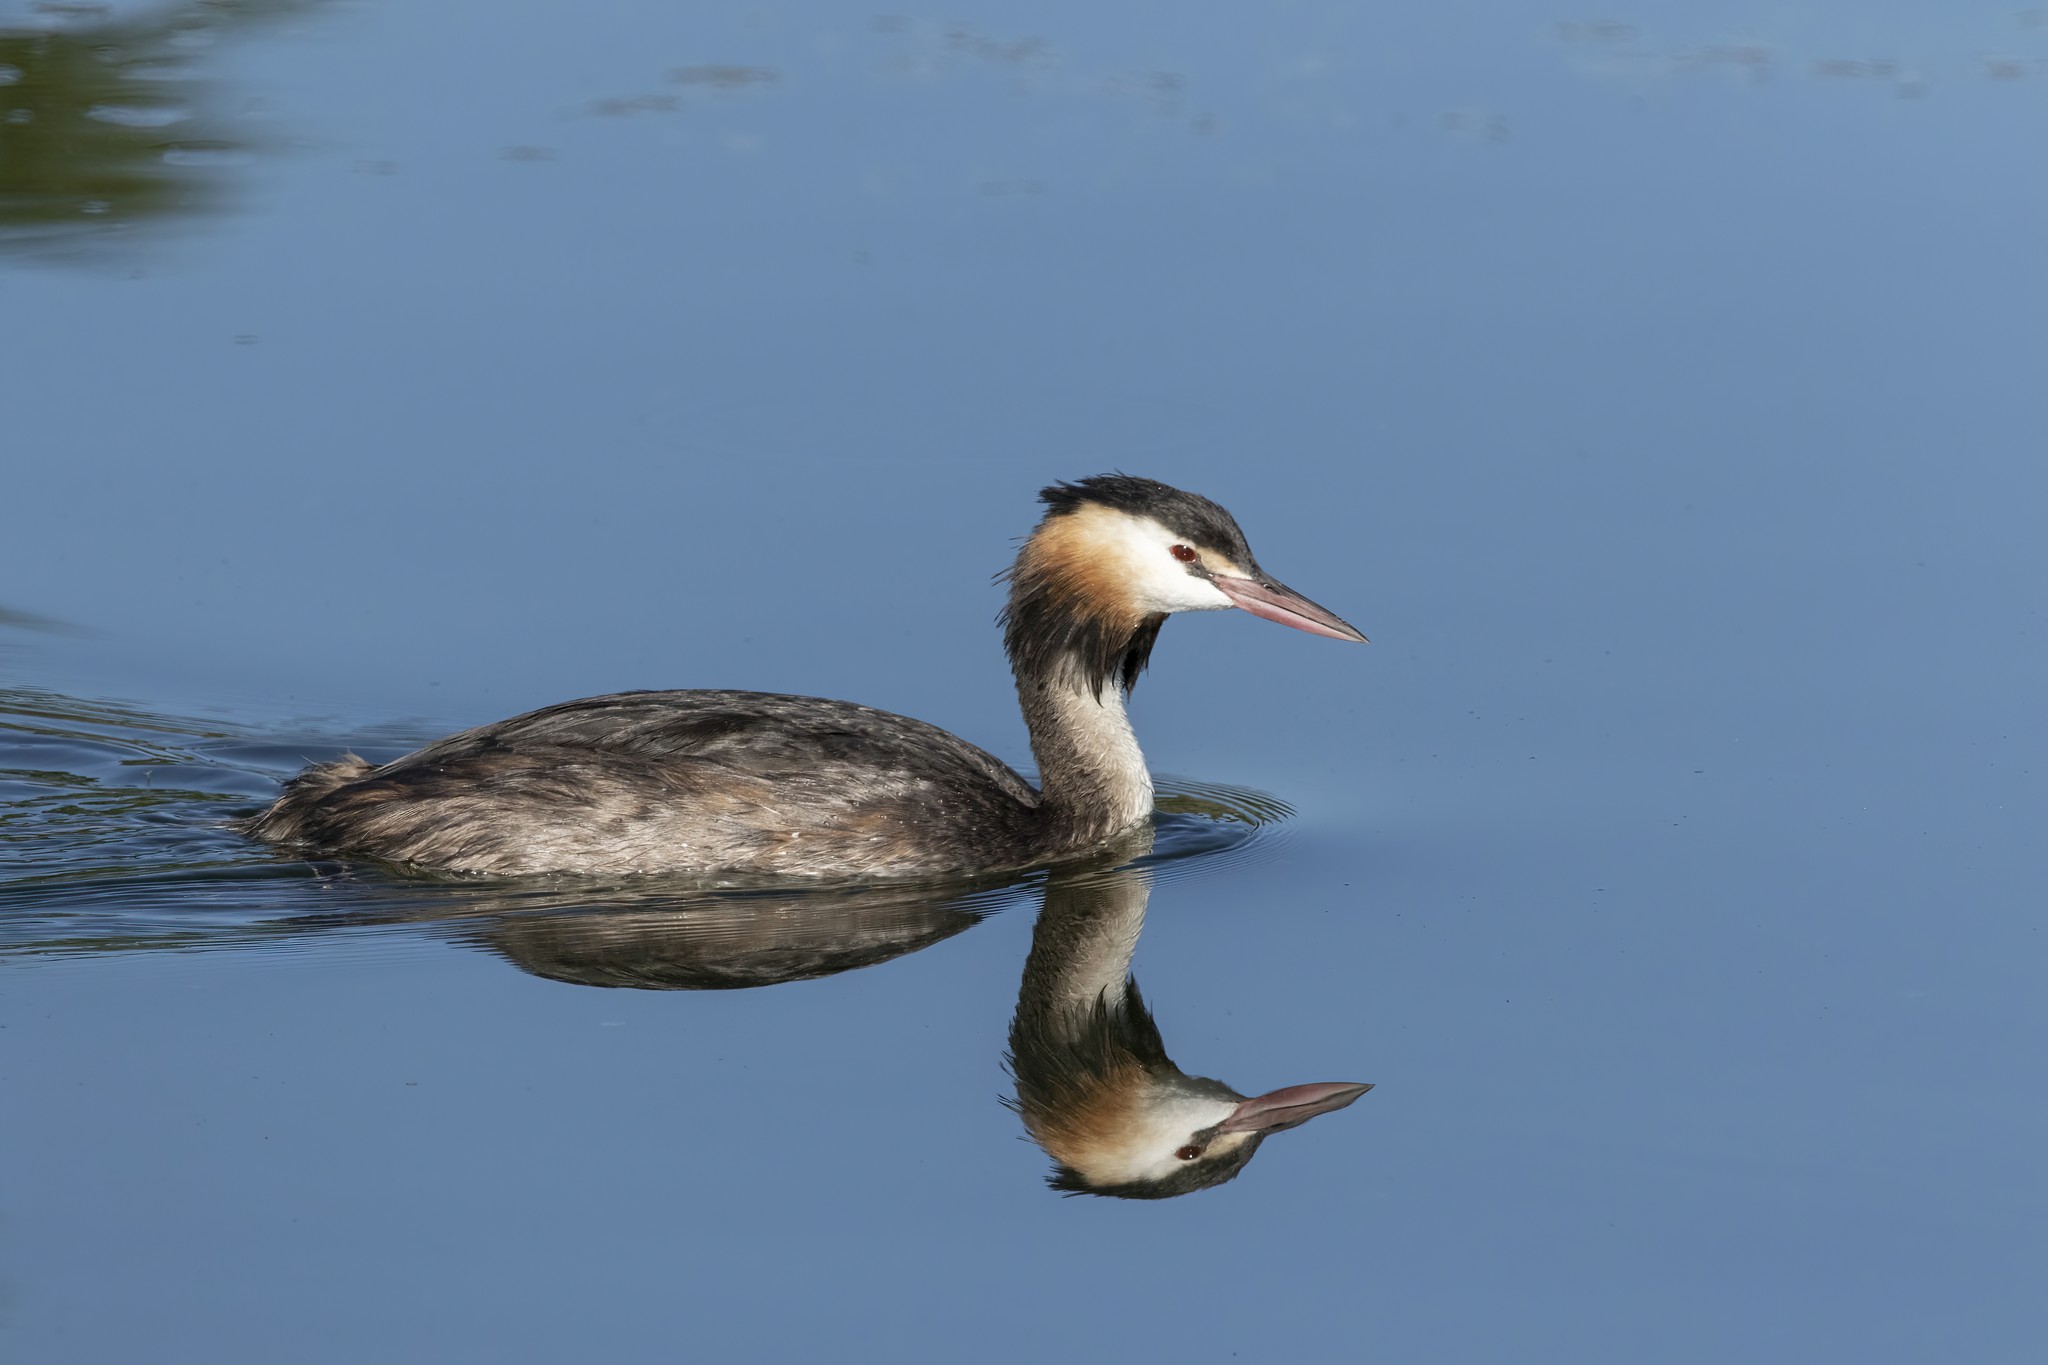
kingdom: Animalia
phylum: Chordata
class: Aves
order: Podicipediformes
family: Podicipedidae
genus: Podiceps
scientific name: Podiceps cristatus
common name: Great crested grebe
